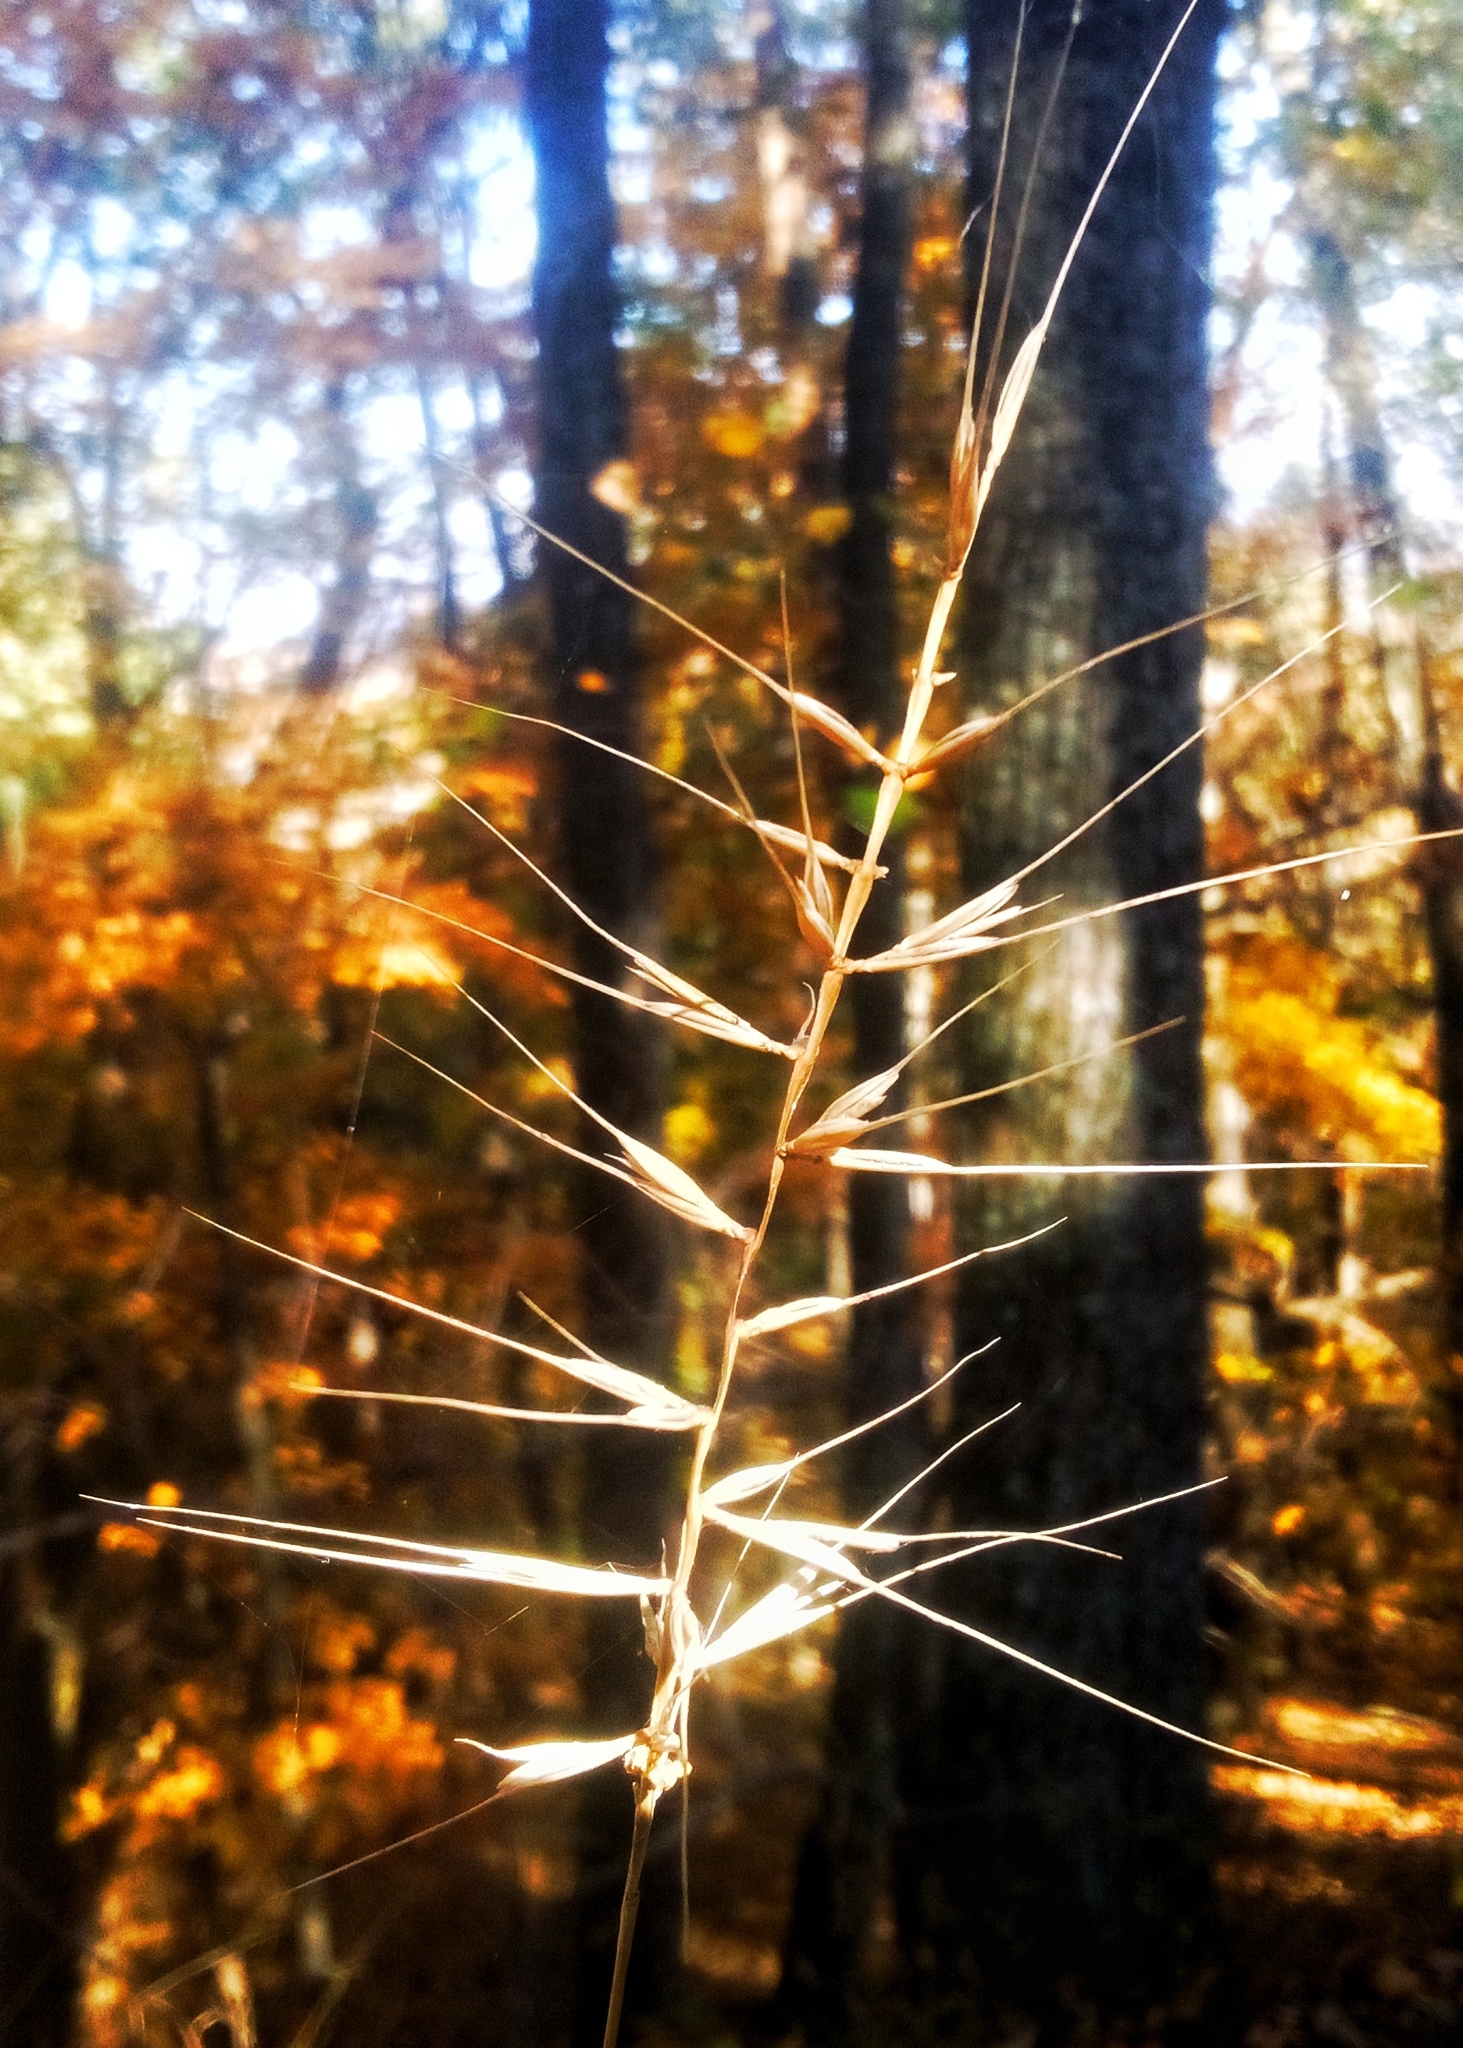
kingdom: Plantae
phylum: Tracheophyta
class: Liliopsida
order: Poales
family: Poaceae
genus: Elymus
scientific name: Elymus hystrix
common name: Bottlebrush grass
